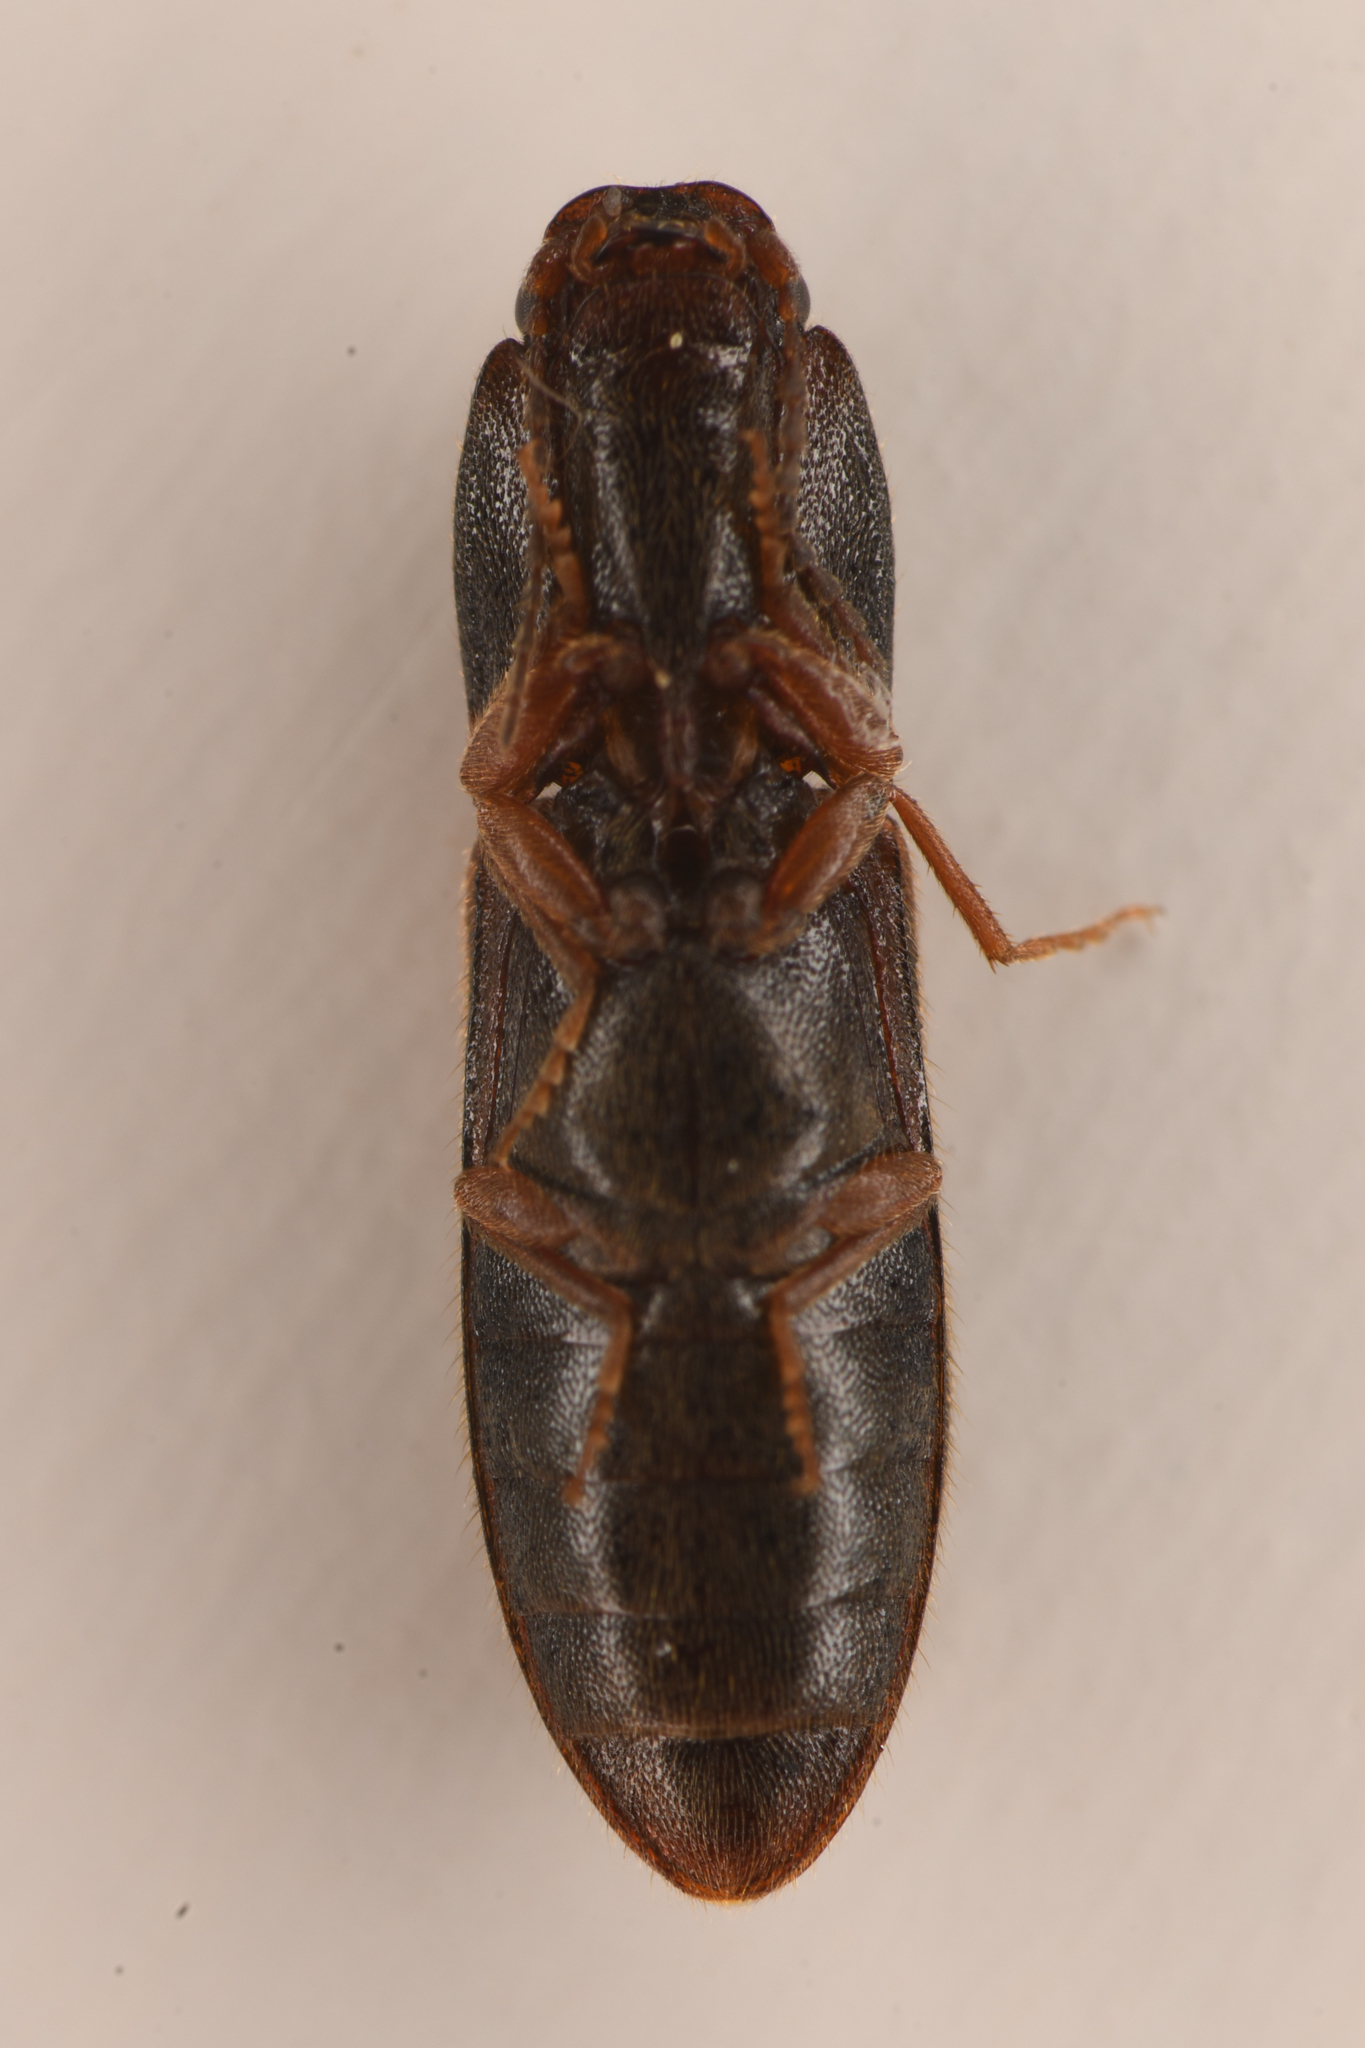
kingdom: Animalia
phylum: Arthropoda
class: Insecta
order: Coleoptera
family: Elateridae
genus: Athous
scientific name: Athous imitans
